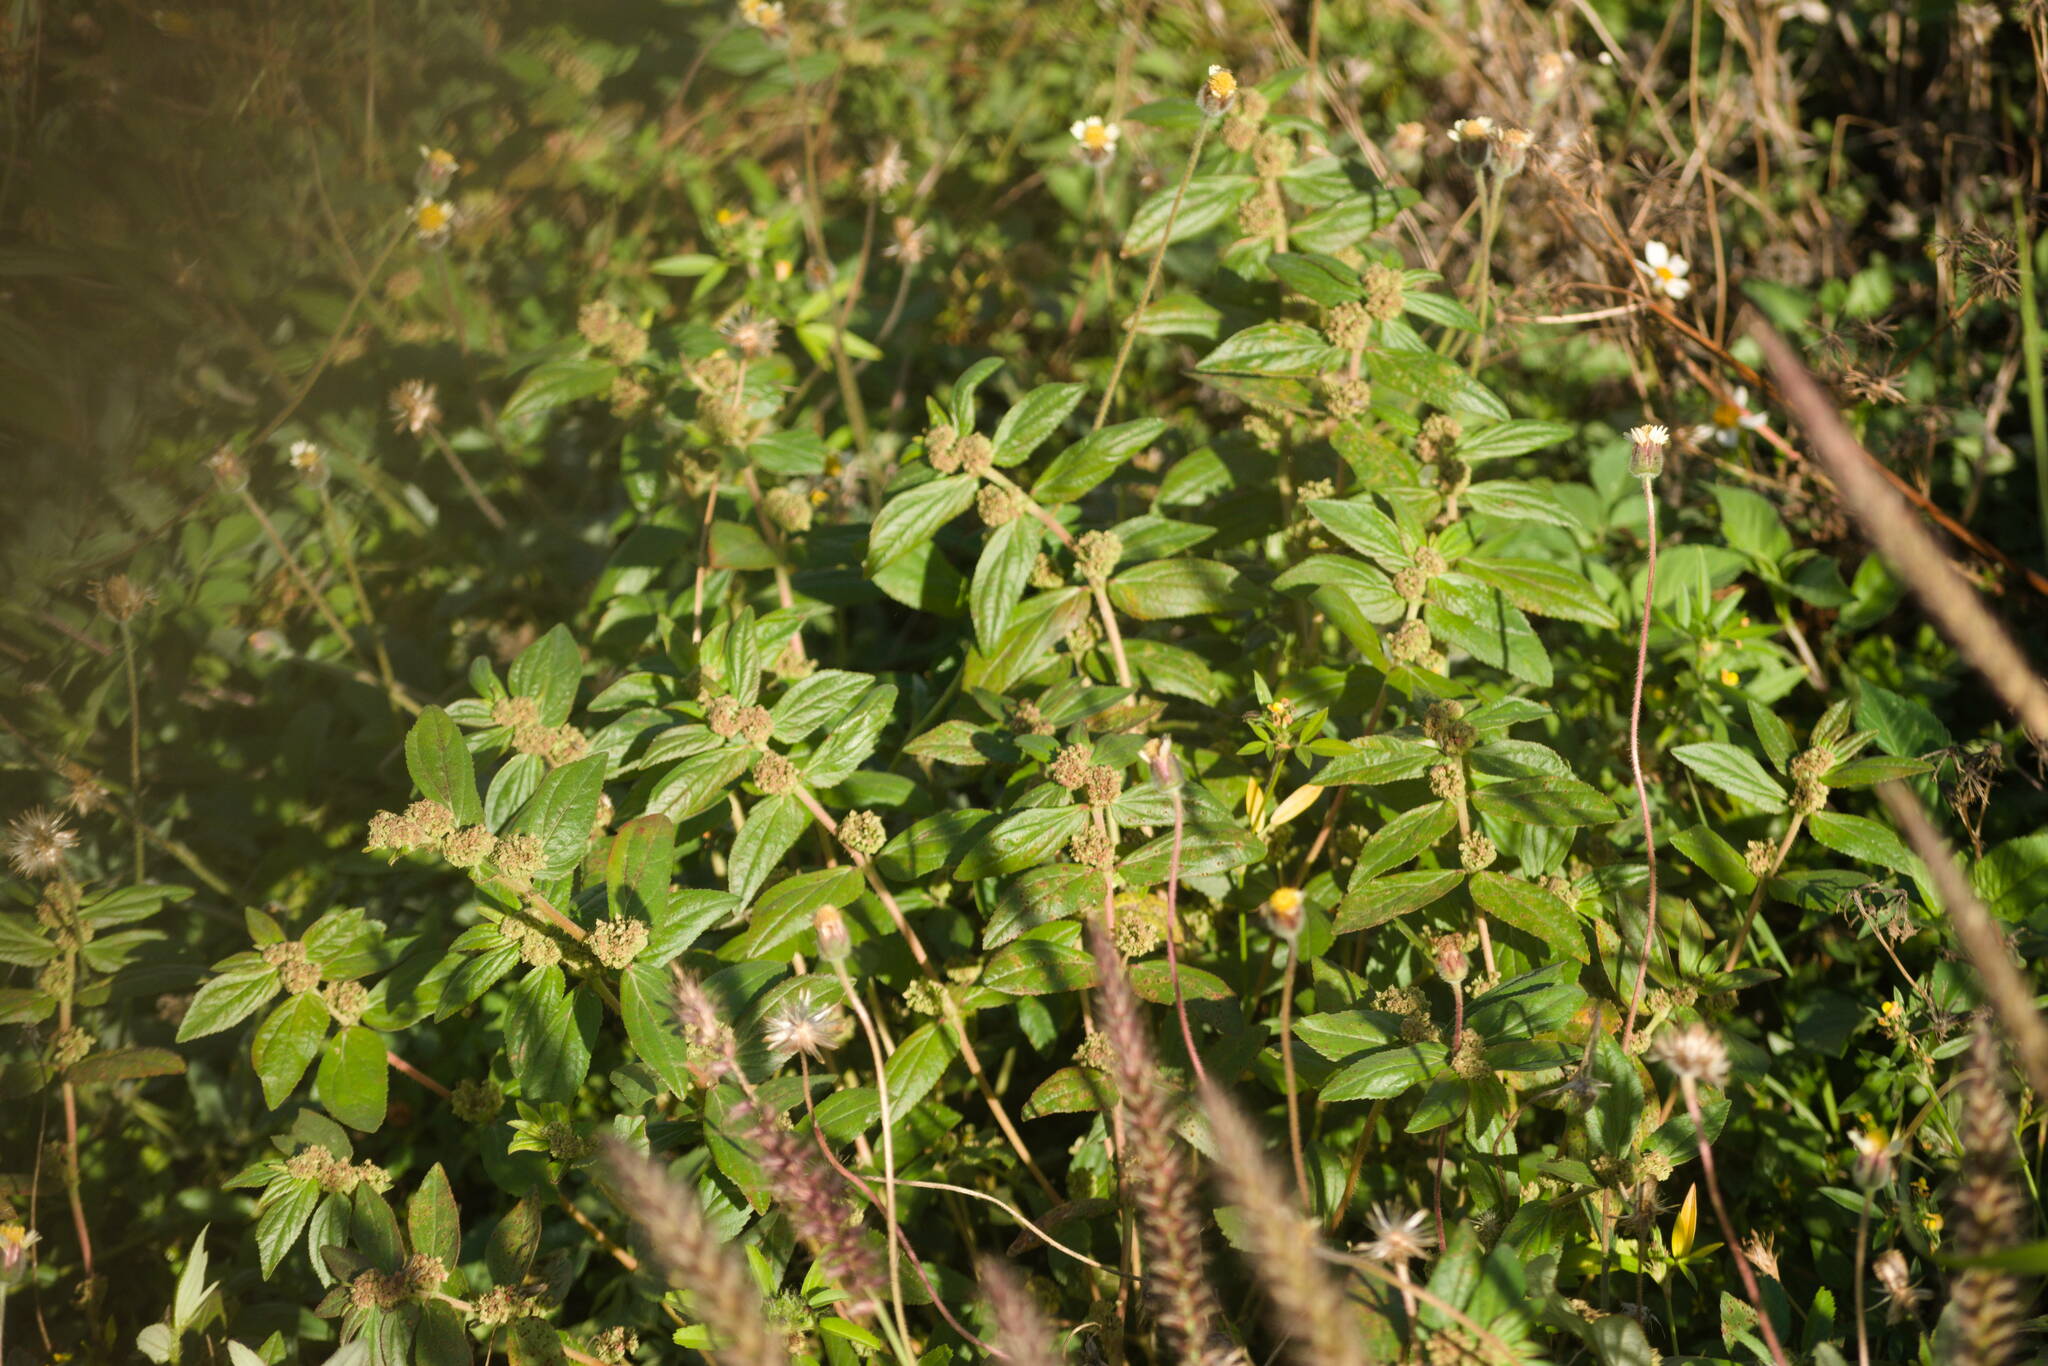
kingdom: Plantae
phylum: Tracheophyta
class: Magnoliopsida
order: Malpighiales
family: Euphorbiaceae
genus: Euphorbia
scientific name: Euphorbia hirta
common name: Pillpod sandmat
